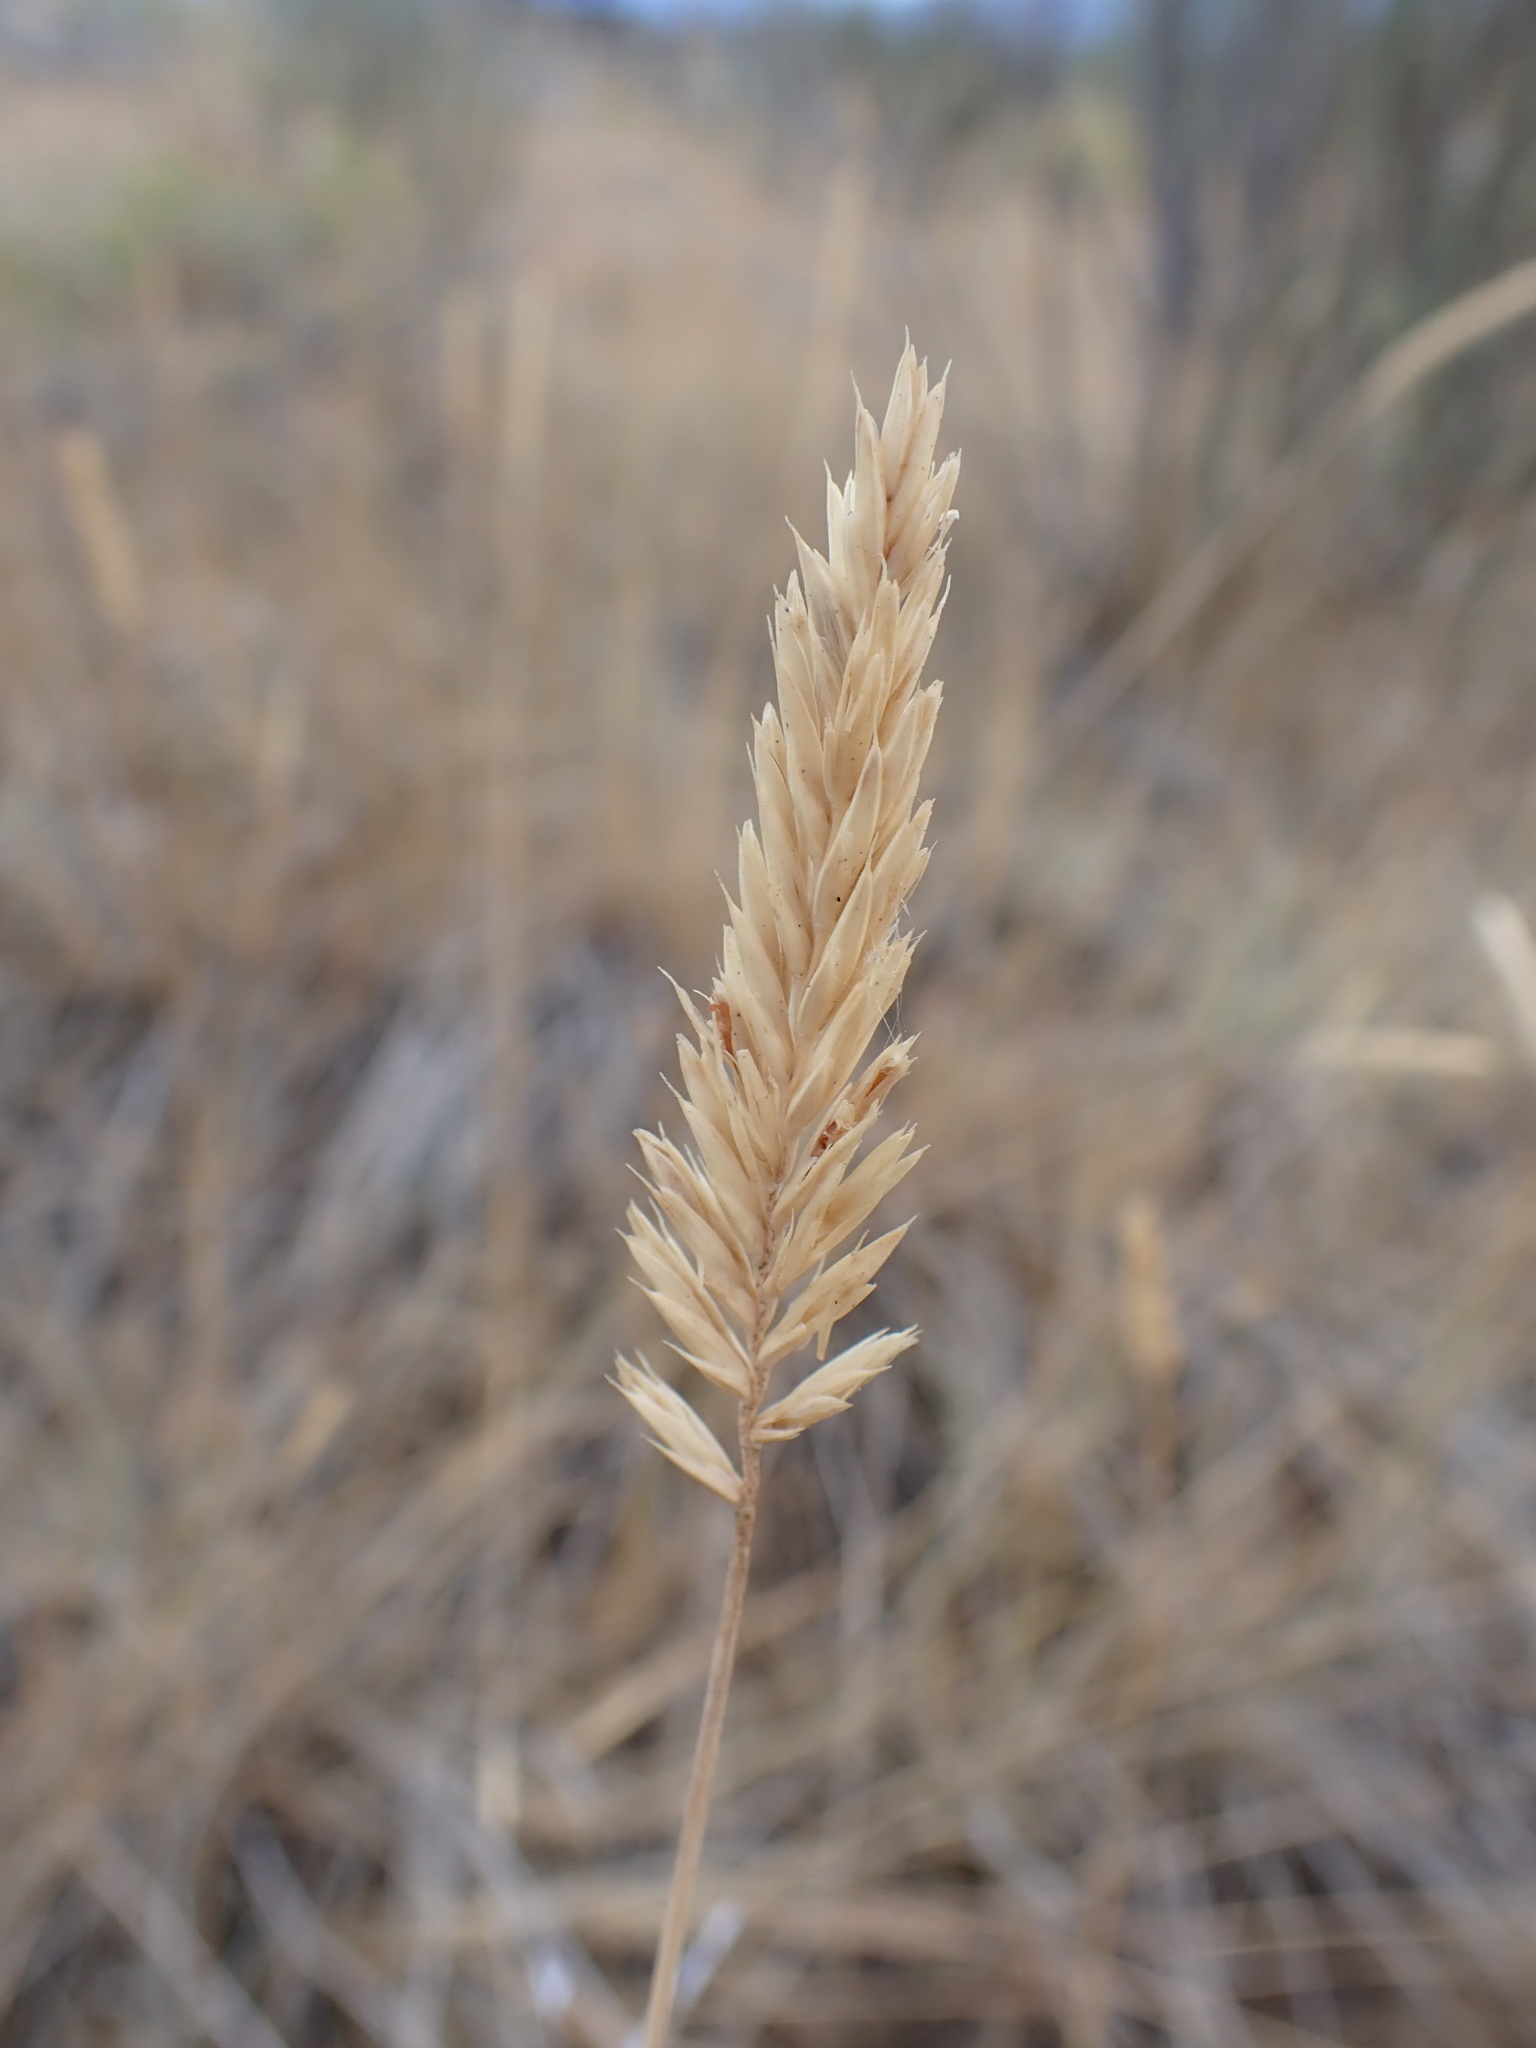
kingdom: Plantae
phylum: Tracheophyta
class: Liliopsida
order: Poales
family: Poaceae
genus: Agropyron
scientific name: Agropyron cristatum
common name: Crested wheatgrass
